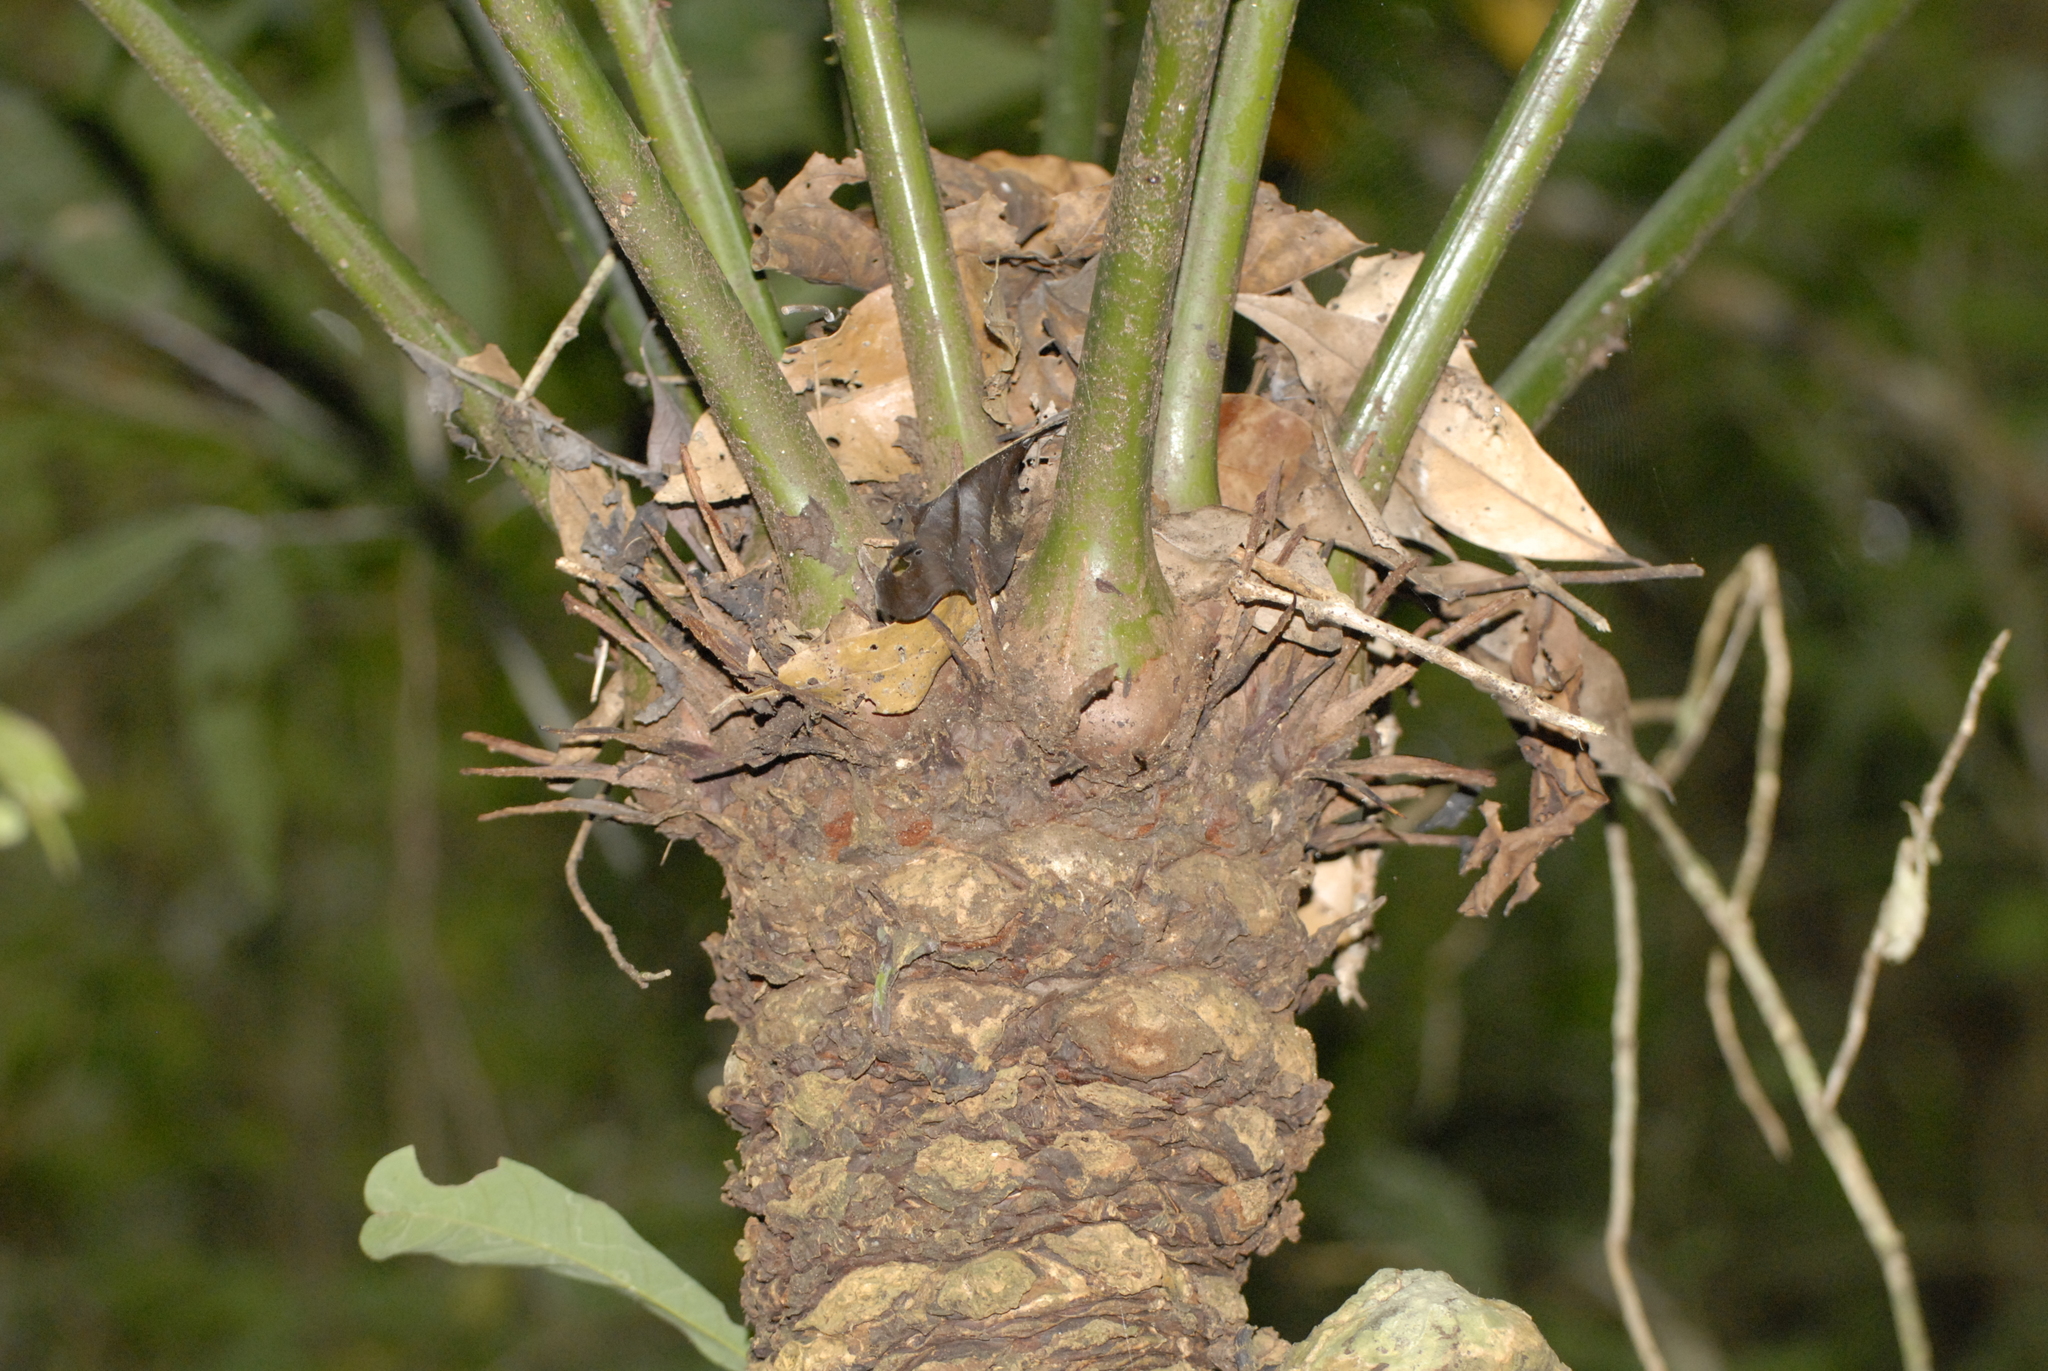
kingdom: Plantae
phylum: Tracheophyta
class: Cycadopsida
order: Cycadales
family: Cycadaceae
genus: Cycas
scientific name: Cycas inermis
